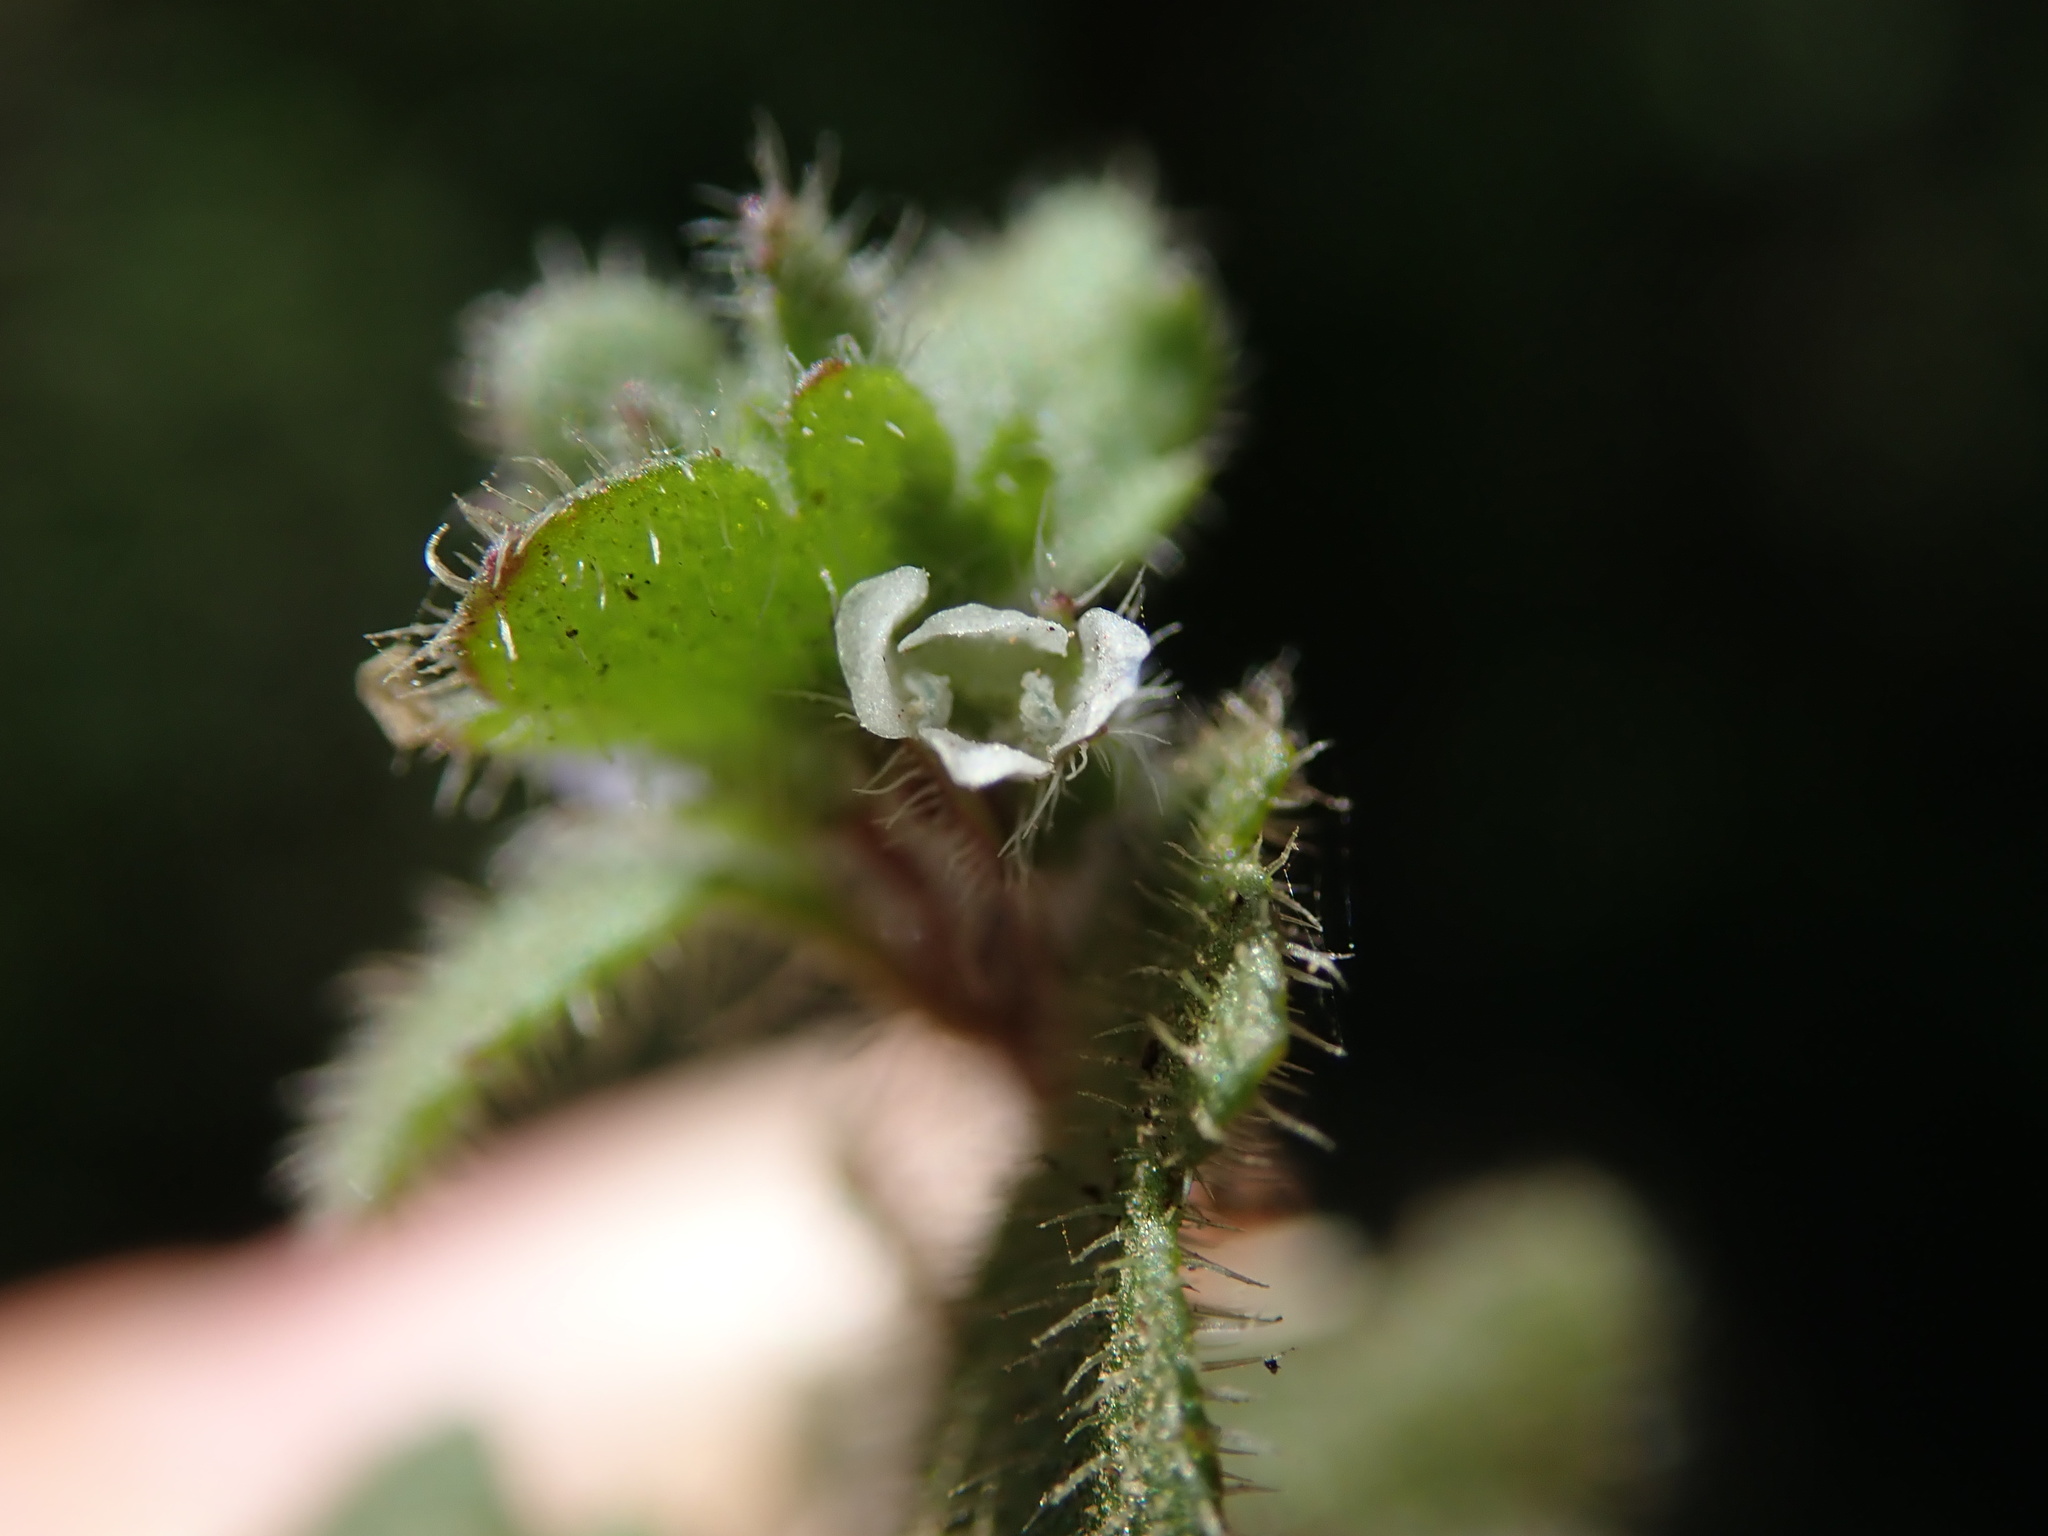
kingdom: Plantae
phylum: Tracheophyta
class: Magnoliopsida
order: Lamiales
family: Plantaginaceae
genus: Veronica
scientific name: Veronica sublobata
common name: False ivy-leaved speedwell
